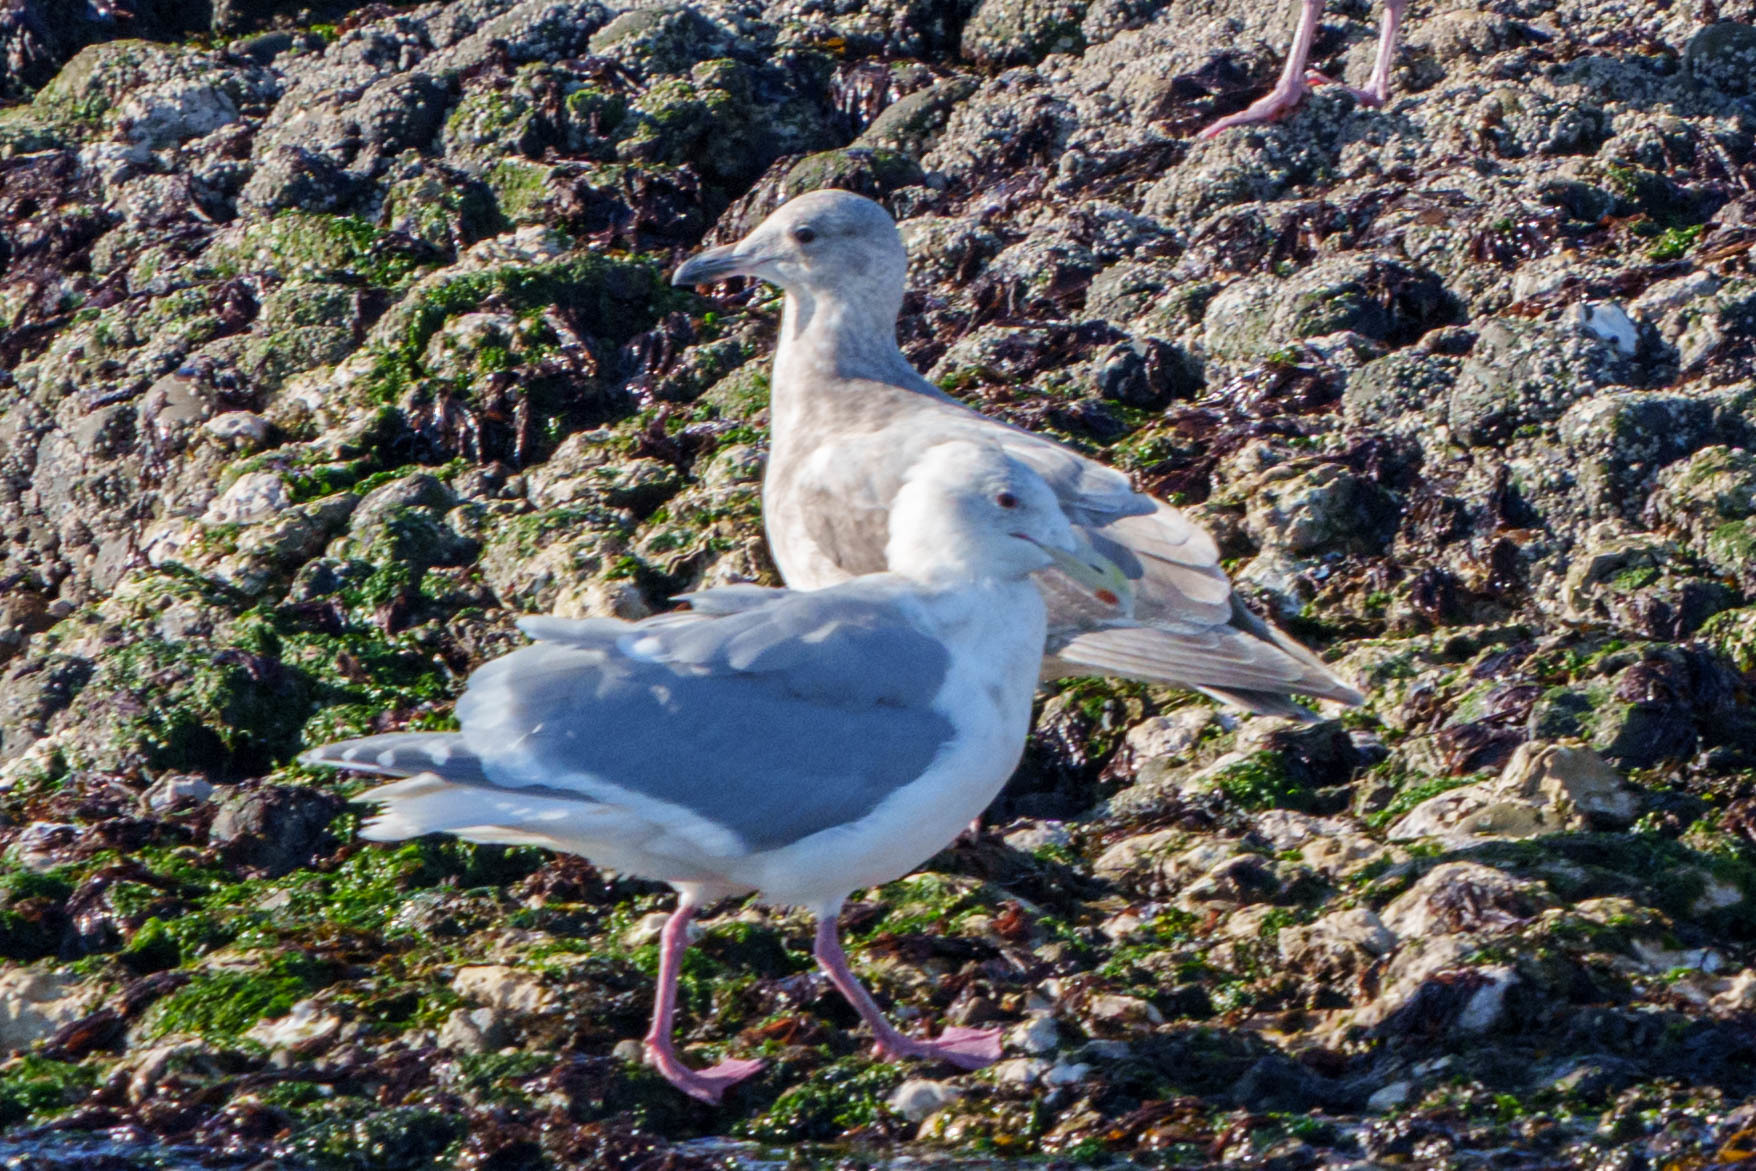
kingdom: Animalia
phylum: Chordata
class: Aves
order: Charadriiformes
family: Laridae
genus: Larus
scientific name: Larus glaucescens
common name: Glaucous-winged gull
